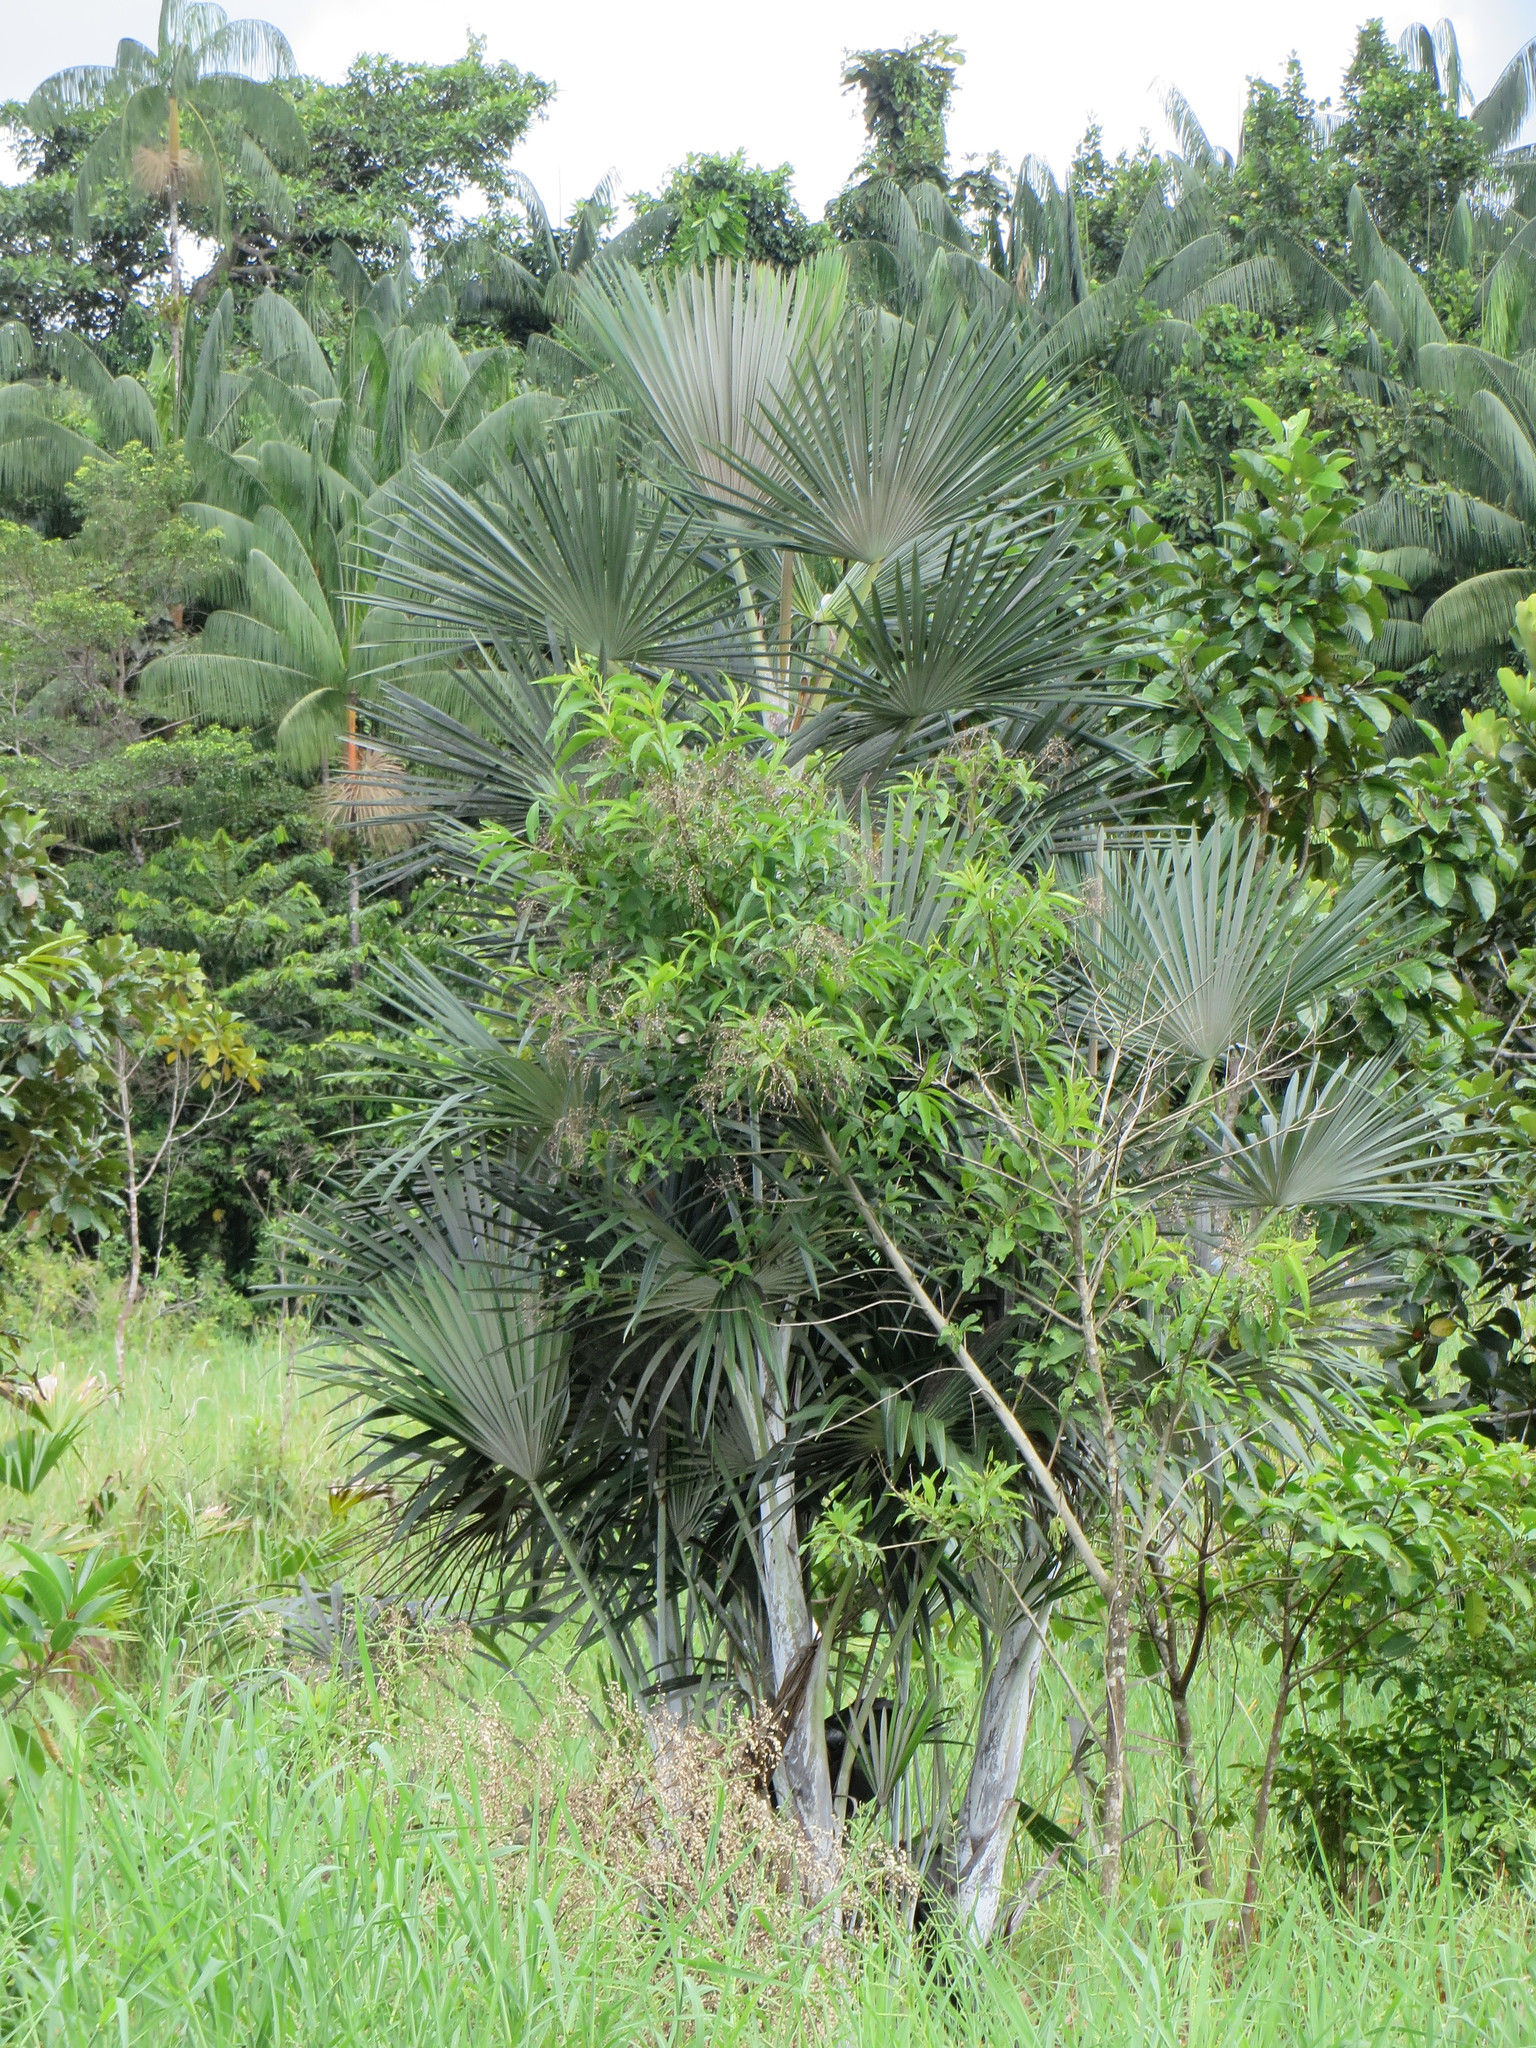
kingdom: Plantae
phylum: Tracheophyta
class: Liliopsida
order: Arecales
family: Arecaceae
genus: Mauritiella
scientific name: Mauritiella armata
